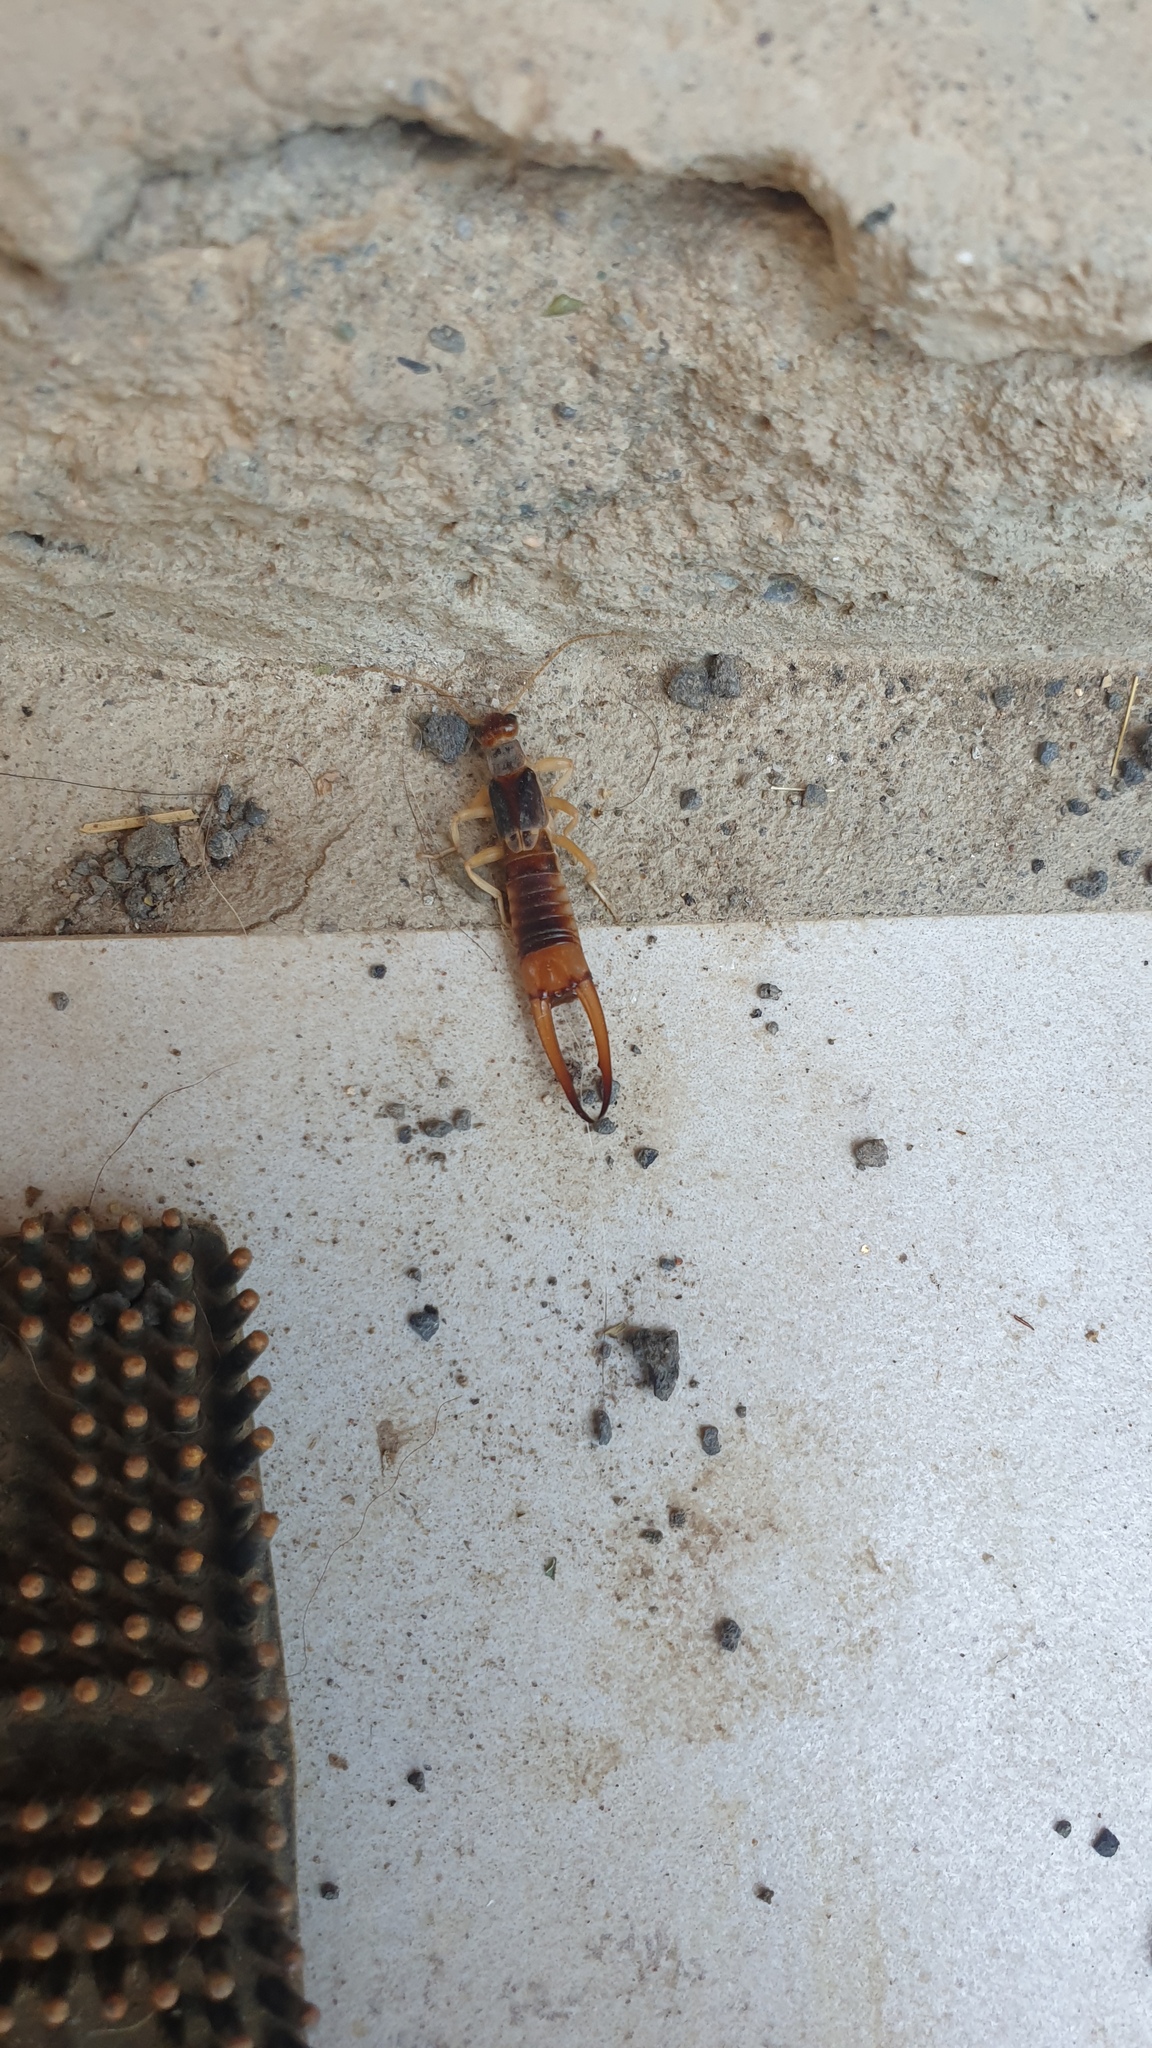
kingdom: Animalia
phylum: Arthropoda
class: Insecta
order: Dermaptera
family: Labiduridae
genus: Labidura
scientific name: Labidura riparia
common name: Striped earwig
